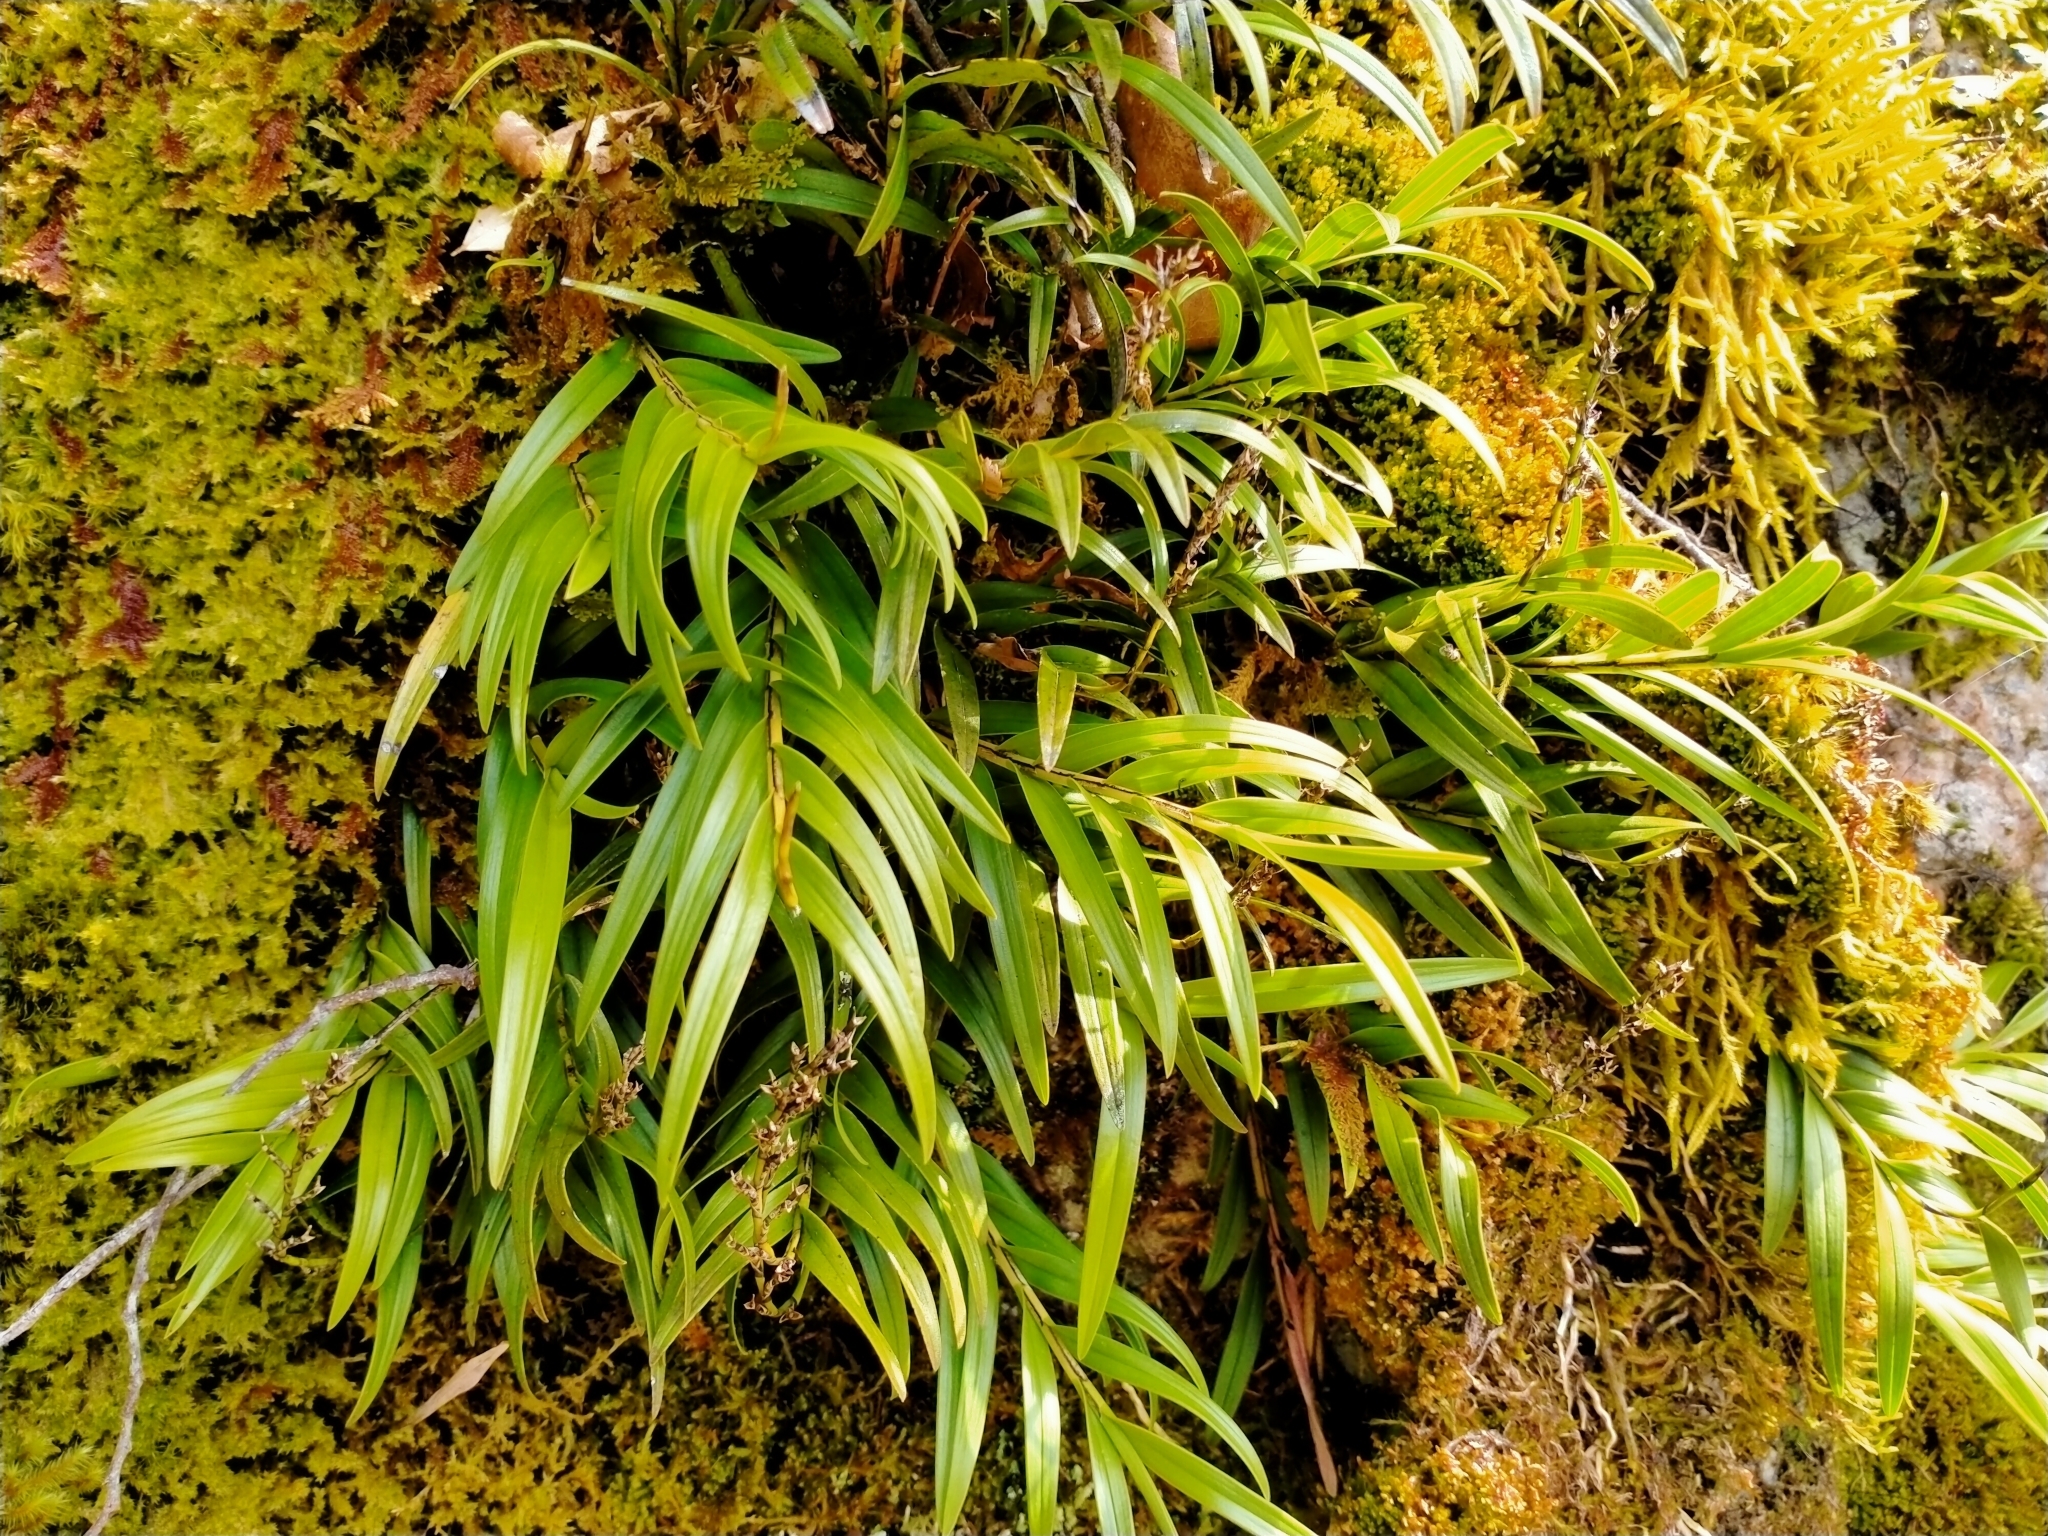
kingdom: Plantae
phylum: Tracheophyta
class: Liliopsida
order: Asparagales
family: Orchidaceae
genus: Earina
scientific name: Earina autumnalis
